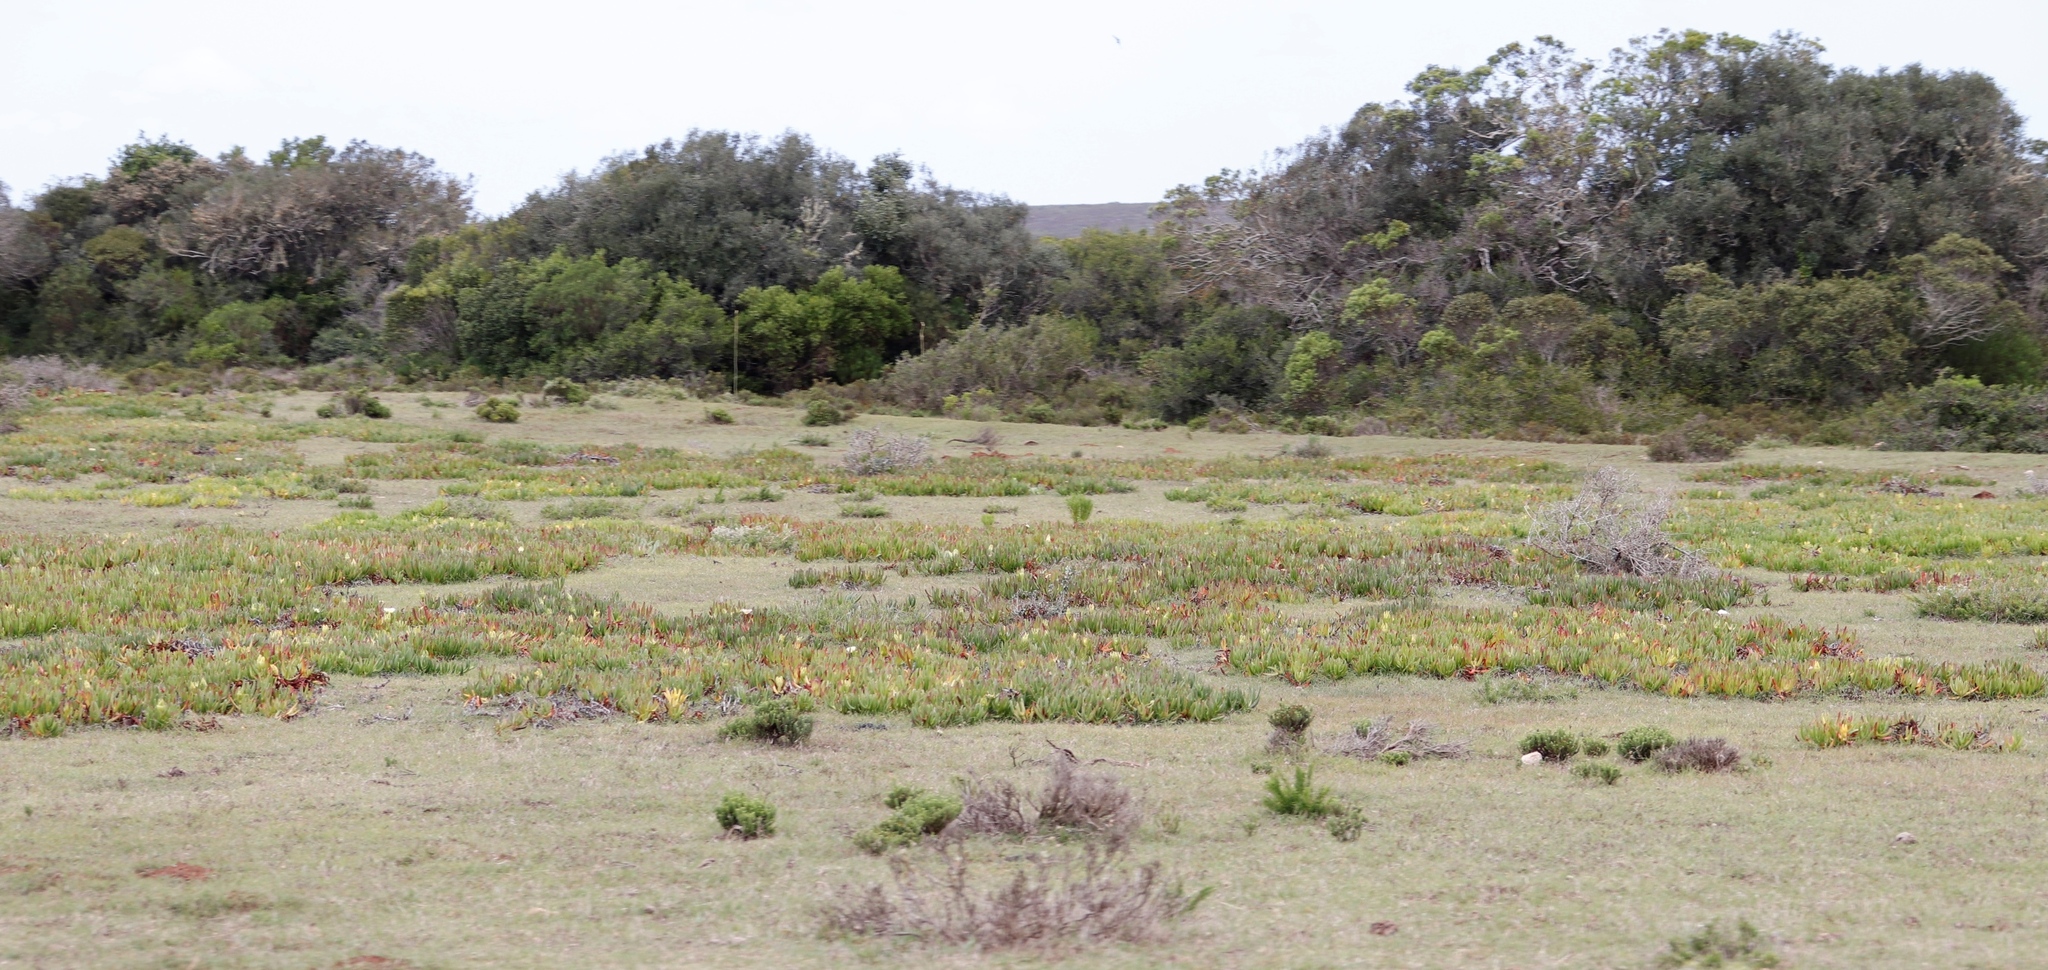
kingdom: Plantae
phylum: Tracheophyta
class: Magnoliopsida
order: Caryophyllales
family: Aizoaceae
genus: Carpobrotus
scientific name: Carpobrotus edulis
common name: Hottentot-fig
